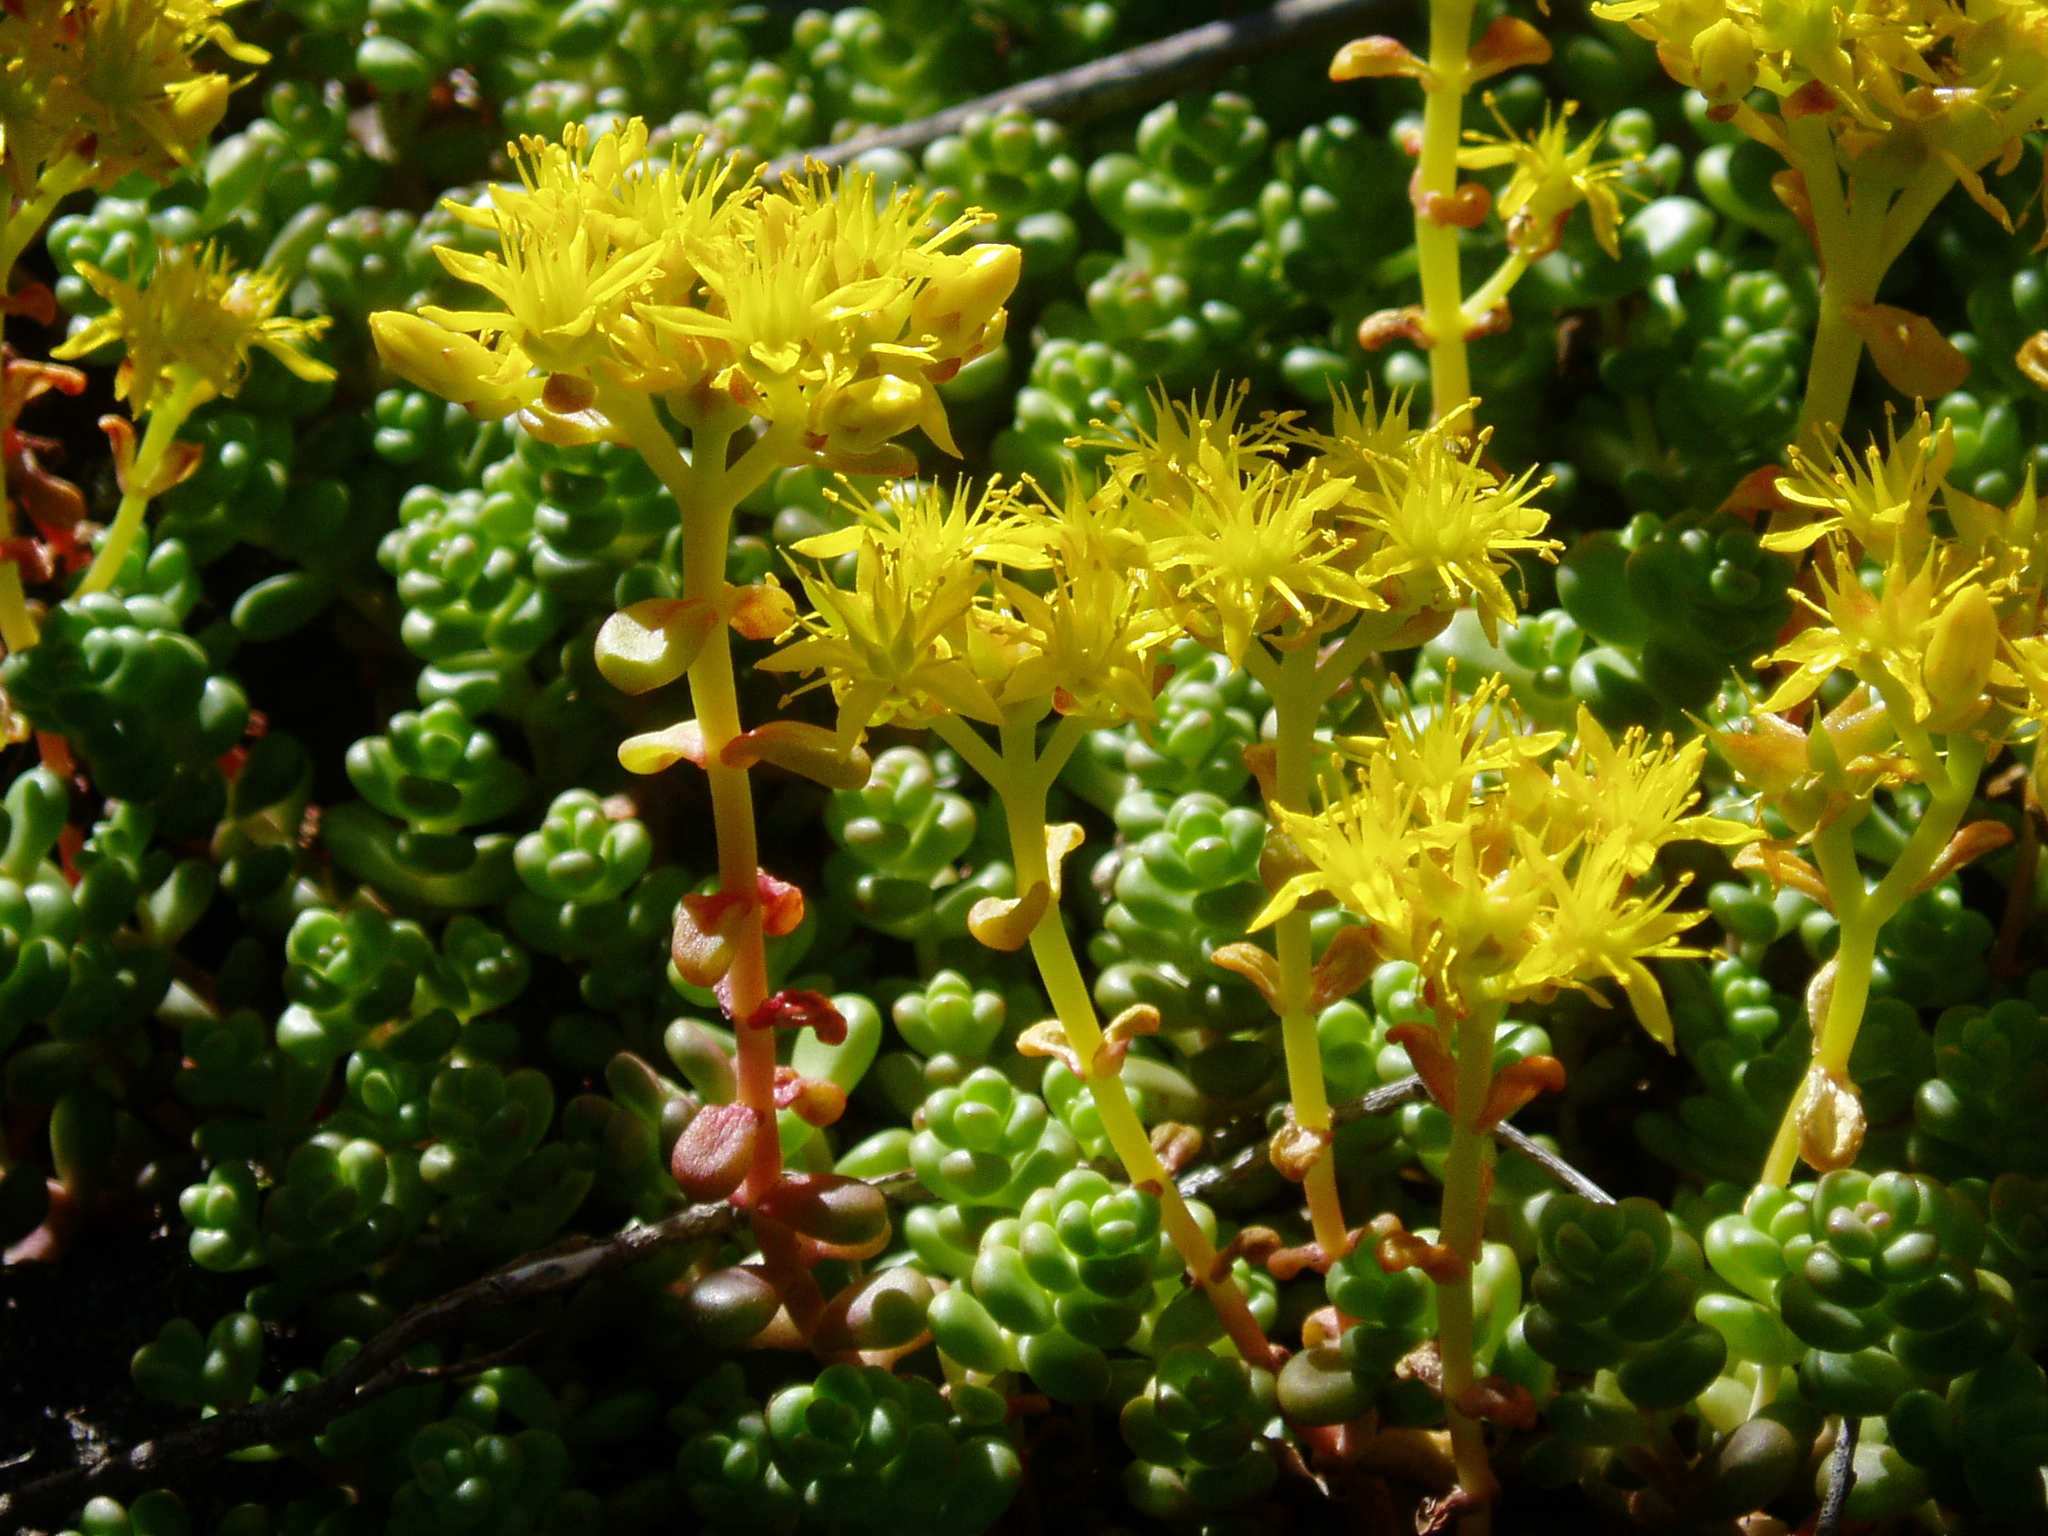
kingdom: Plantae
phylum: Tracheophyta
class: Magnoliopsida
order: Saxifragales
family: Crassulaceae
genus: Sedum
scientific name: Sedum divergens
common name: Cascade stonecrop
